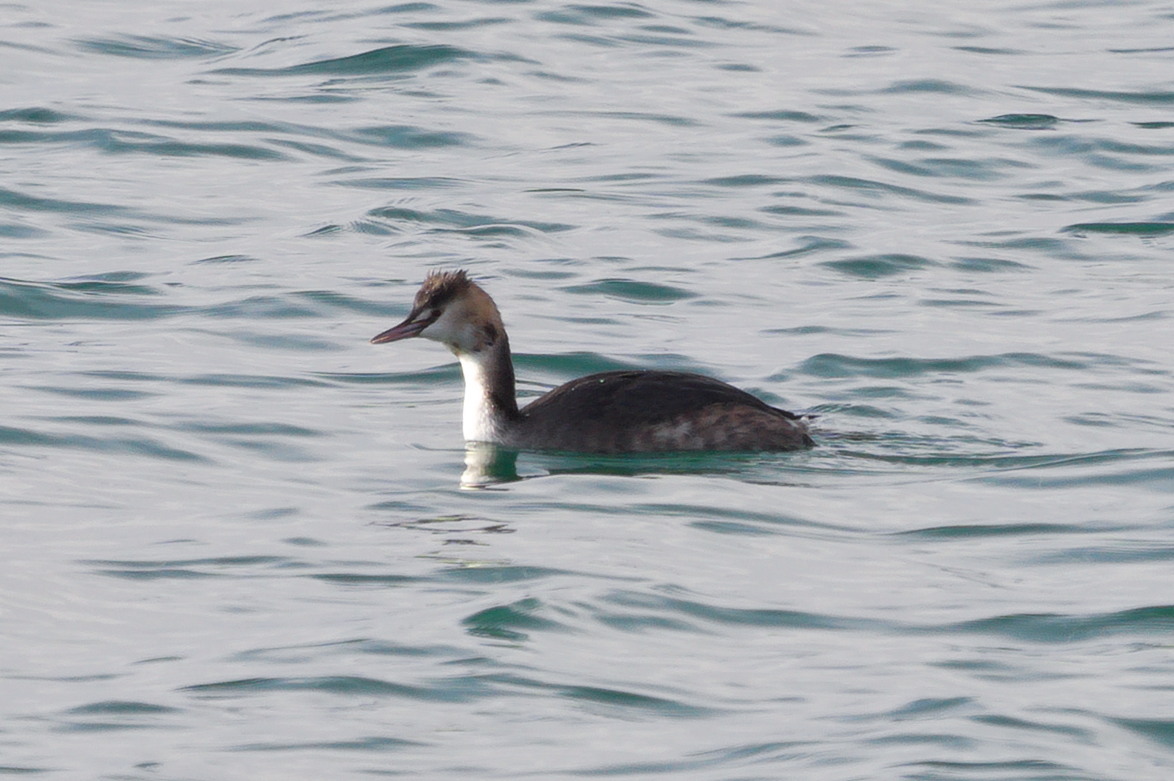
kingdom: Animalia
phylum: Chordata
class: Aves
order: Podicipediformes
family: Podicipedidae
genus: Podiceps
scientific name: Podiceps cristatus
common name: Great crested grebe
